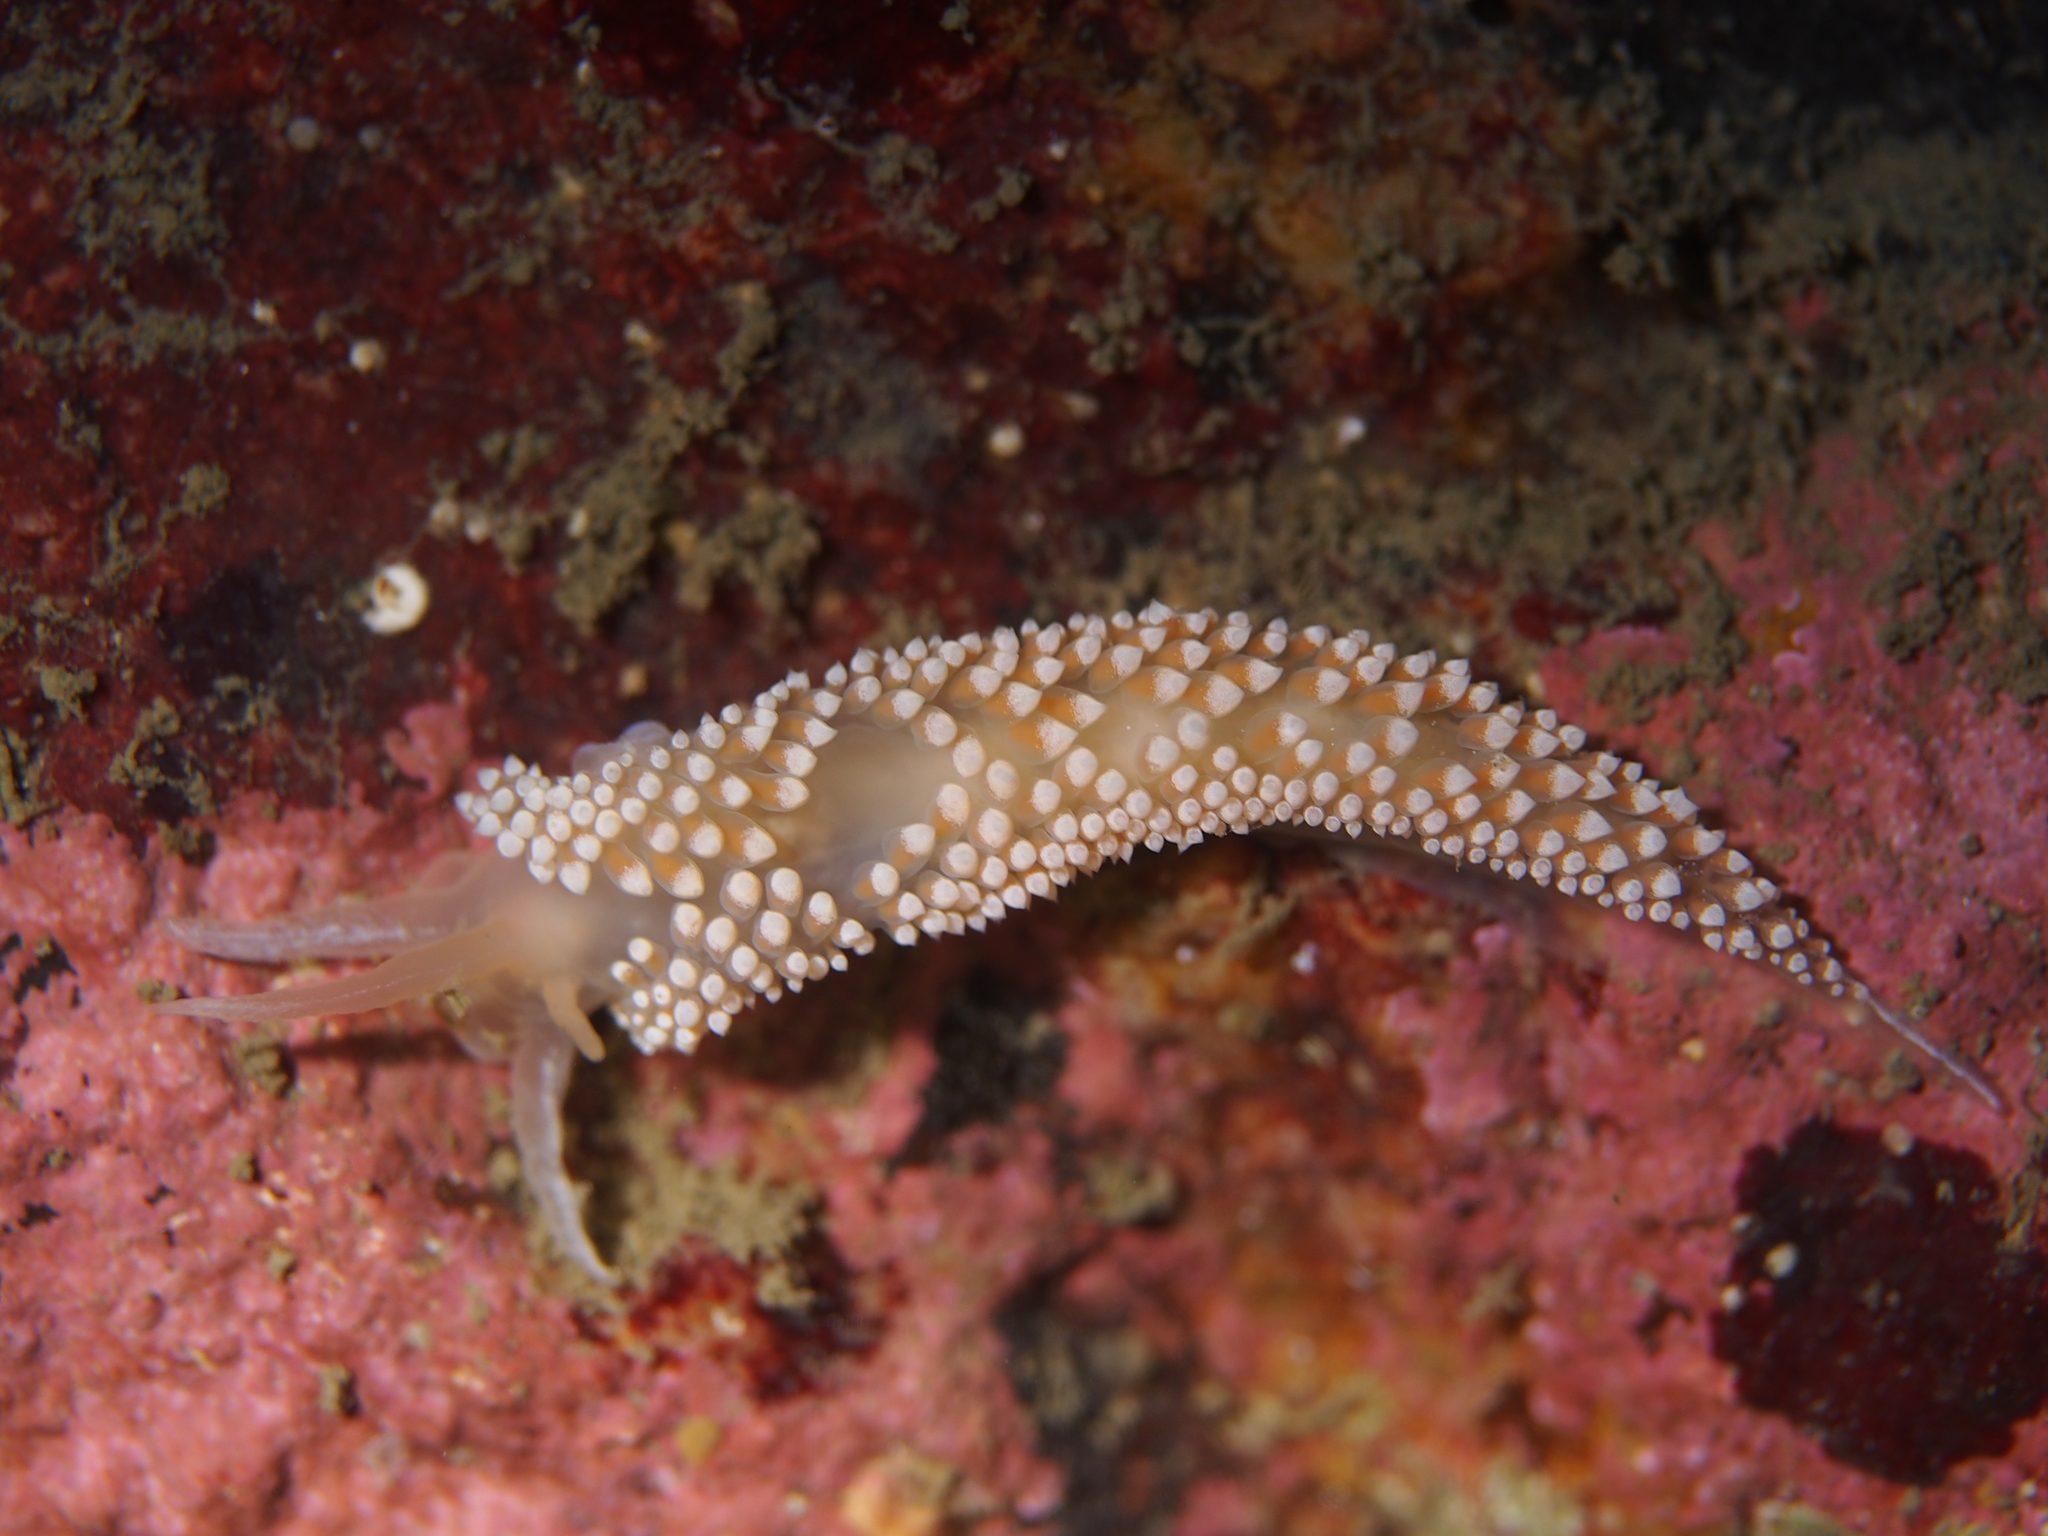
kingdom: Animalia
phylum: Mollusca
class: Gastropoda
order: Nudibranchia
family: Coryphellidae
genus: Coryphella
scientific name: Coryphella verrucosa
